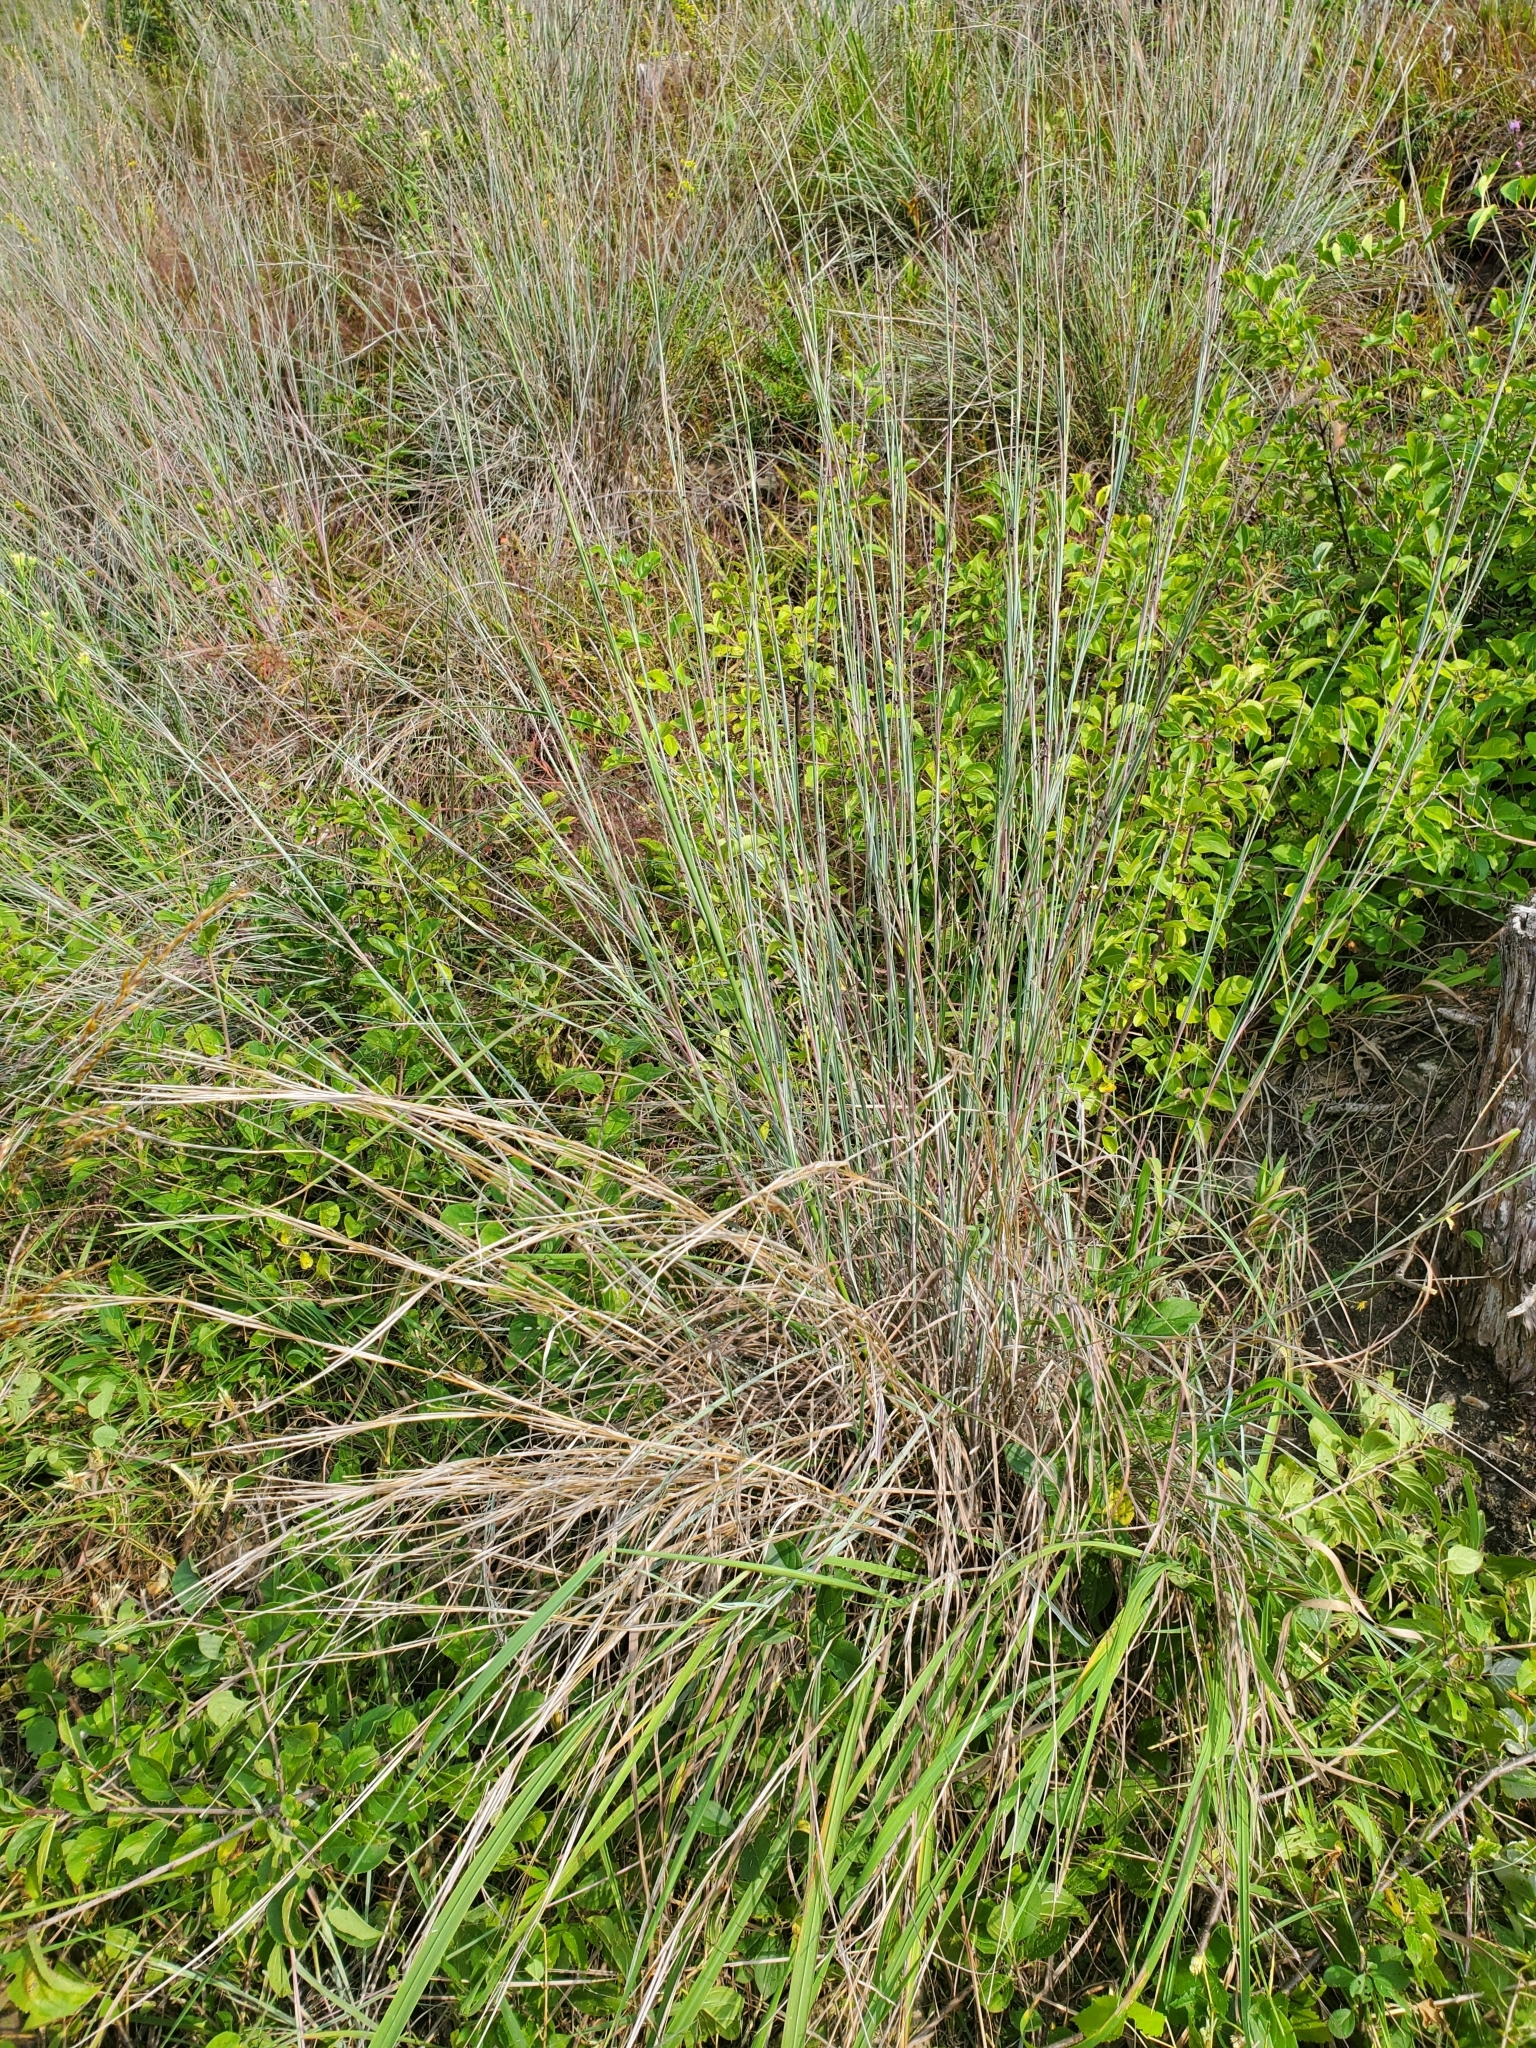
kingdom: Plantae
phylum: Tracheophyta
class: Liliopsida
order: Poales
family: Poaceae
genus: Schizachyrium
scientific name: Schizachyrium scoparium
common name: Little bluestem
